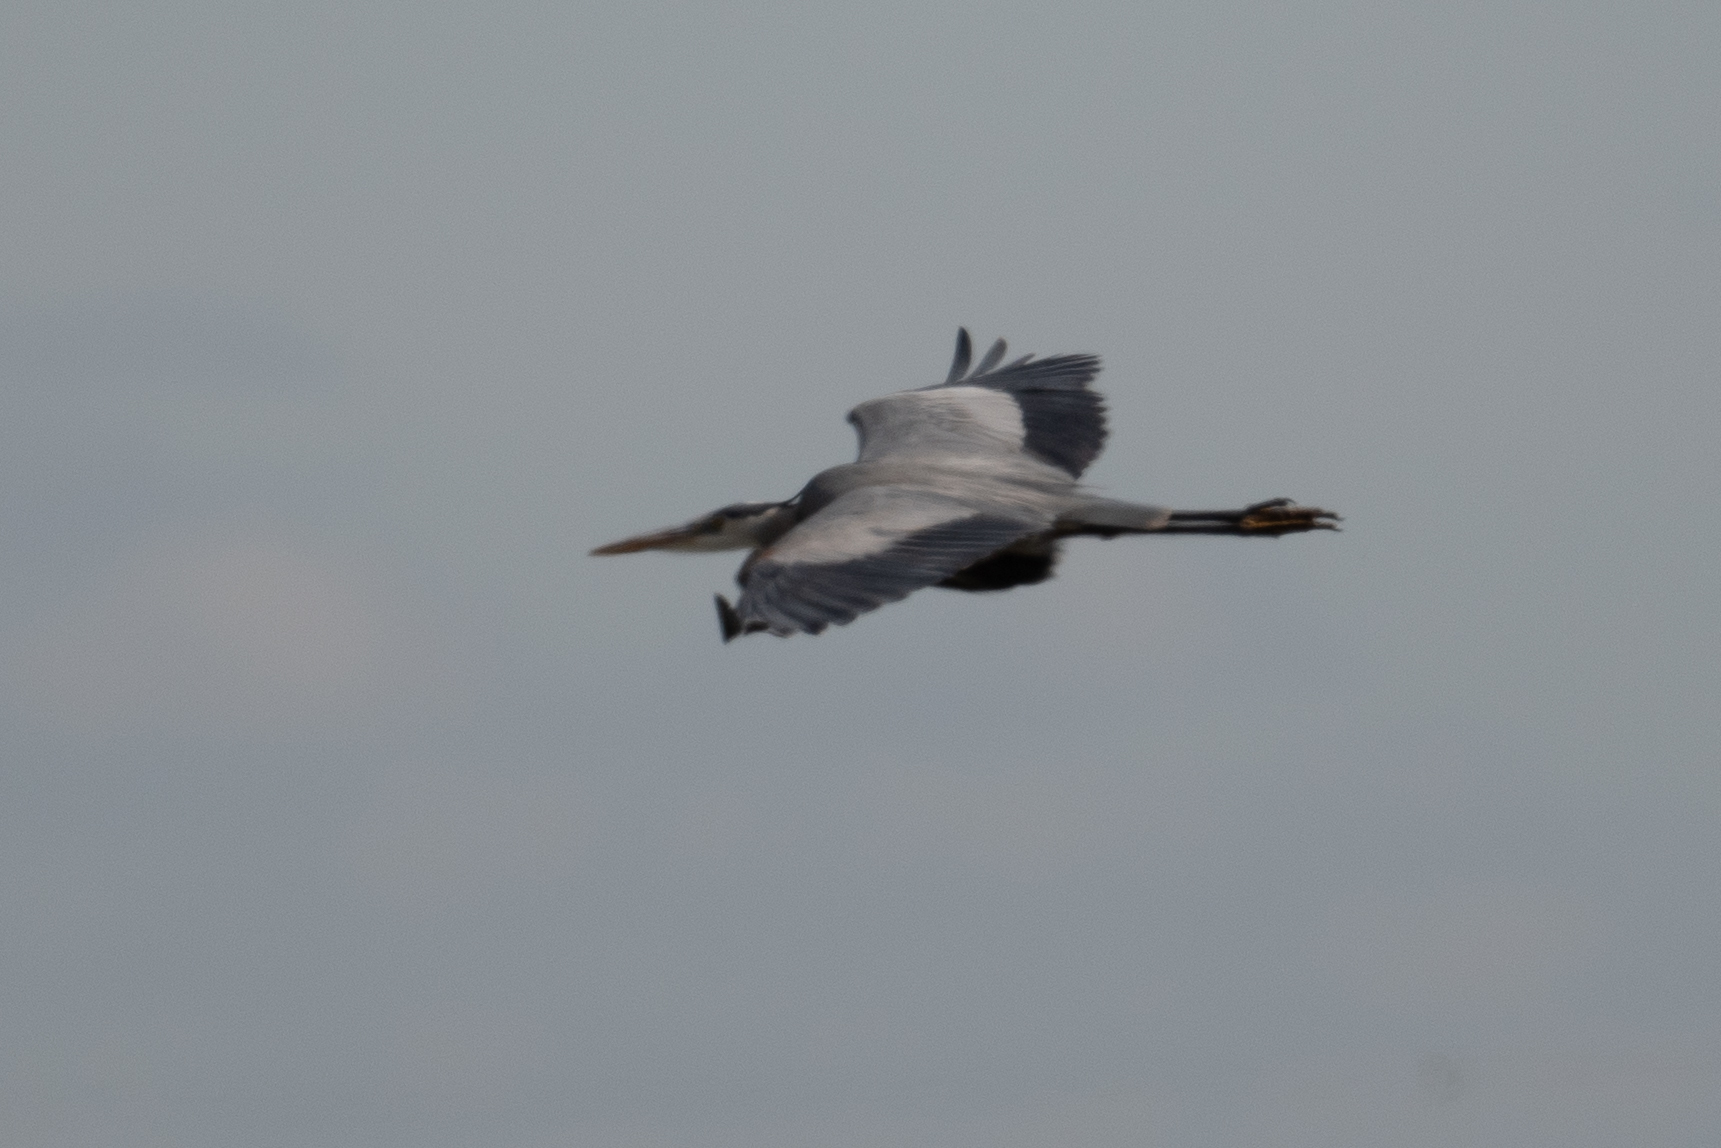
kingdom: Animalia
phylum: Chordata
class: Aves
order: Pelecaniformes
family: Ardeidae
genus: Ardea
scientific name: Ardea herodias
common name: Great blue heron
